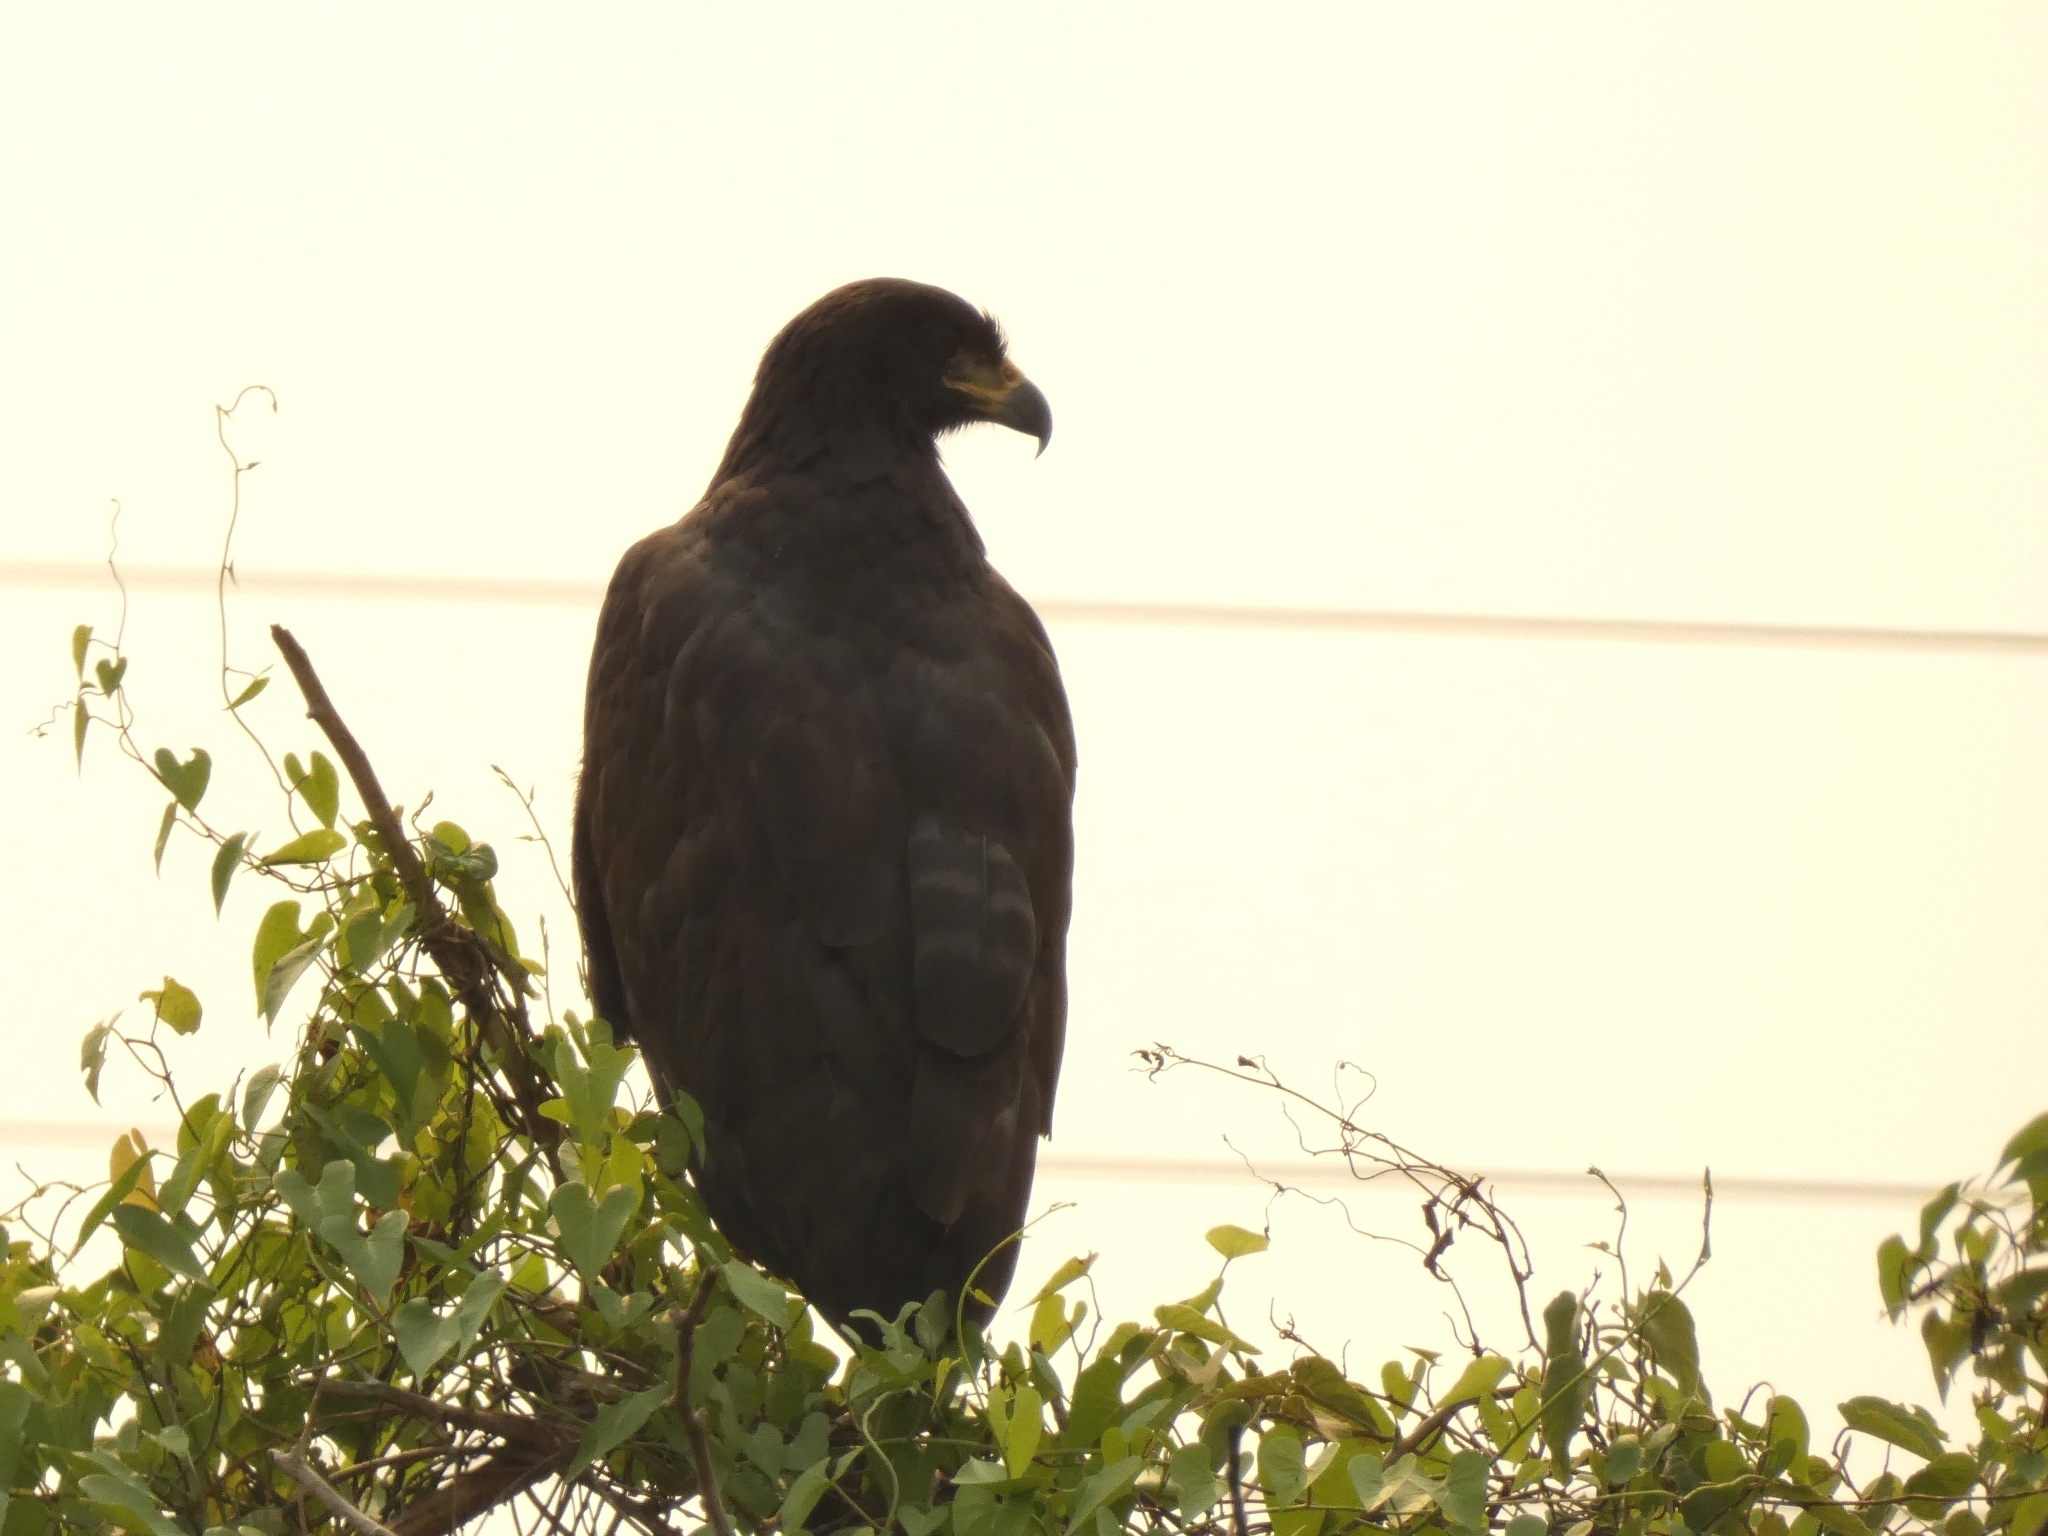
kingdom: Animalia
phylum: Chordata
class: Aves
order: Accipitriformes
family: Accipitridae
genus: Buteogallus
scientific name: Buteogallus urubitinga
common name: Great black hawk
